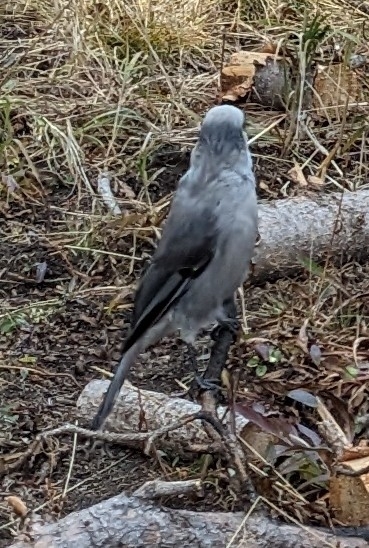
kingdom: Animalia
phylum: Chordata
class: Aves
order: Passeriformes
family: Corvidae
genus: Perisoreus
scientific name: Perisoreus canadensis
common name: Gray jay
